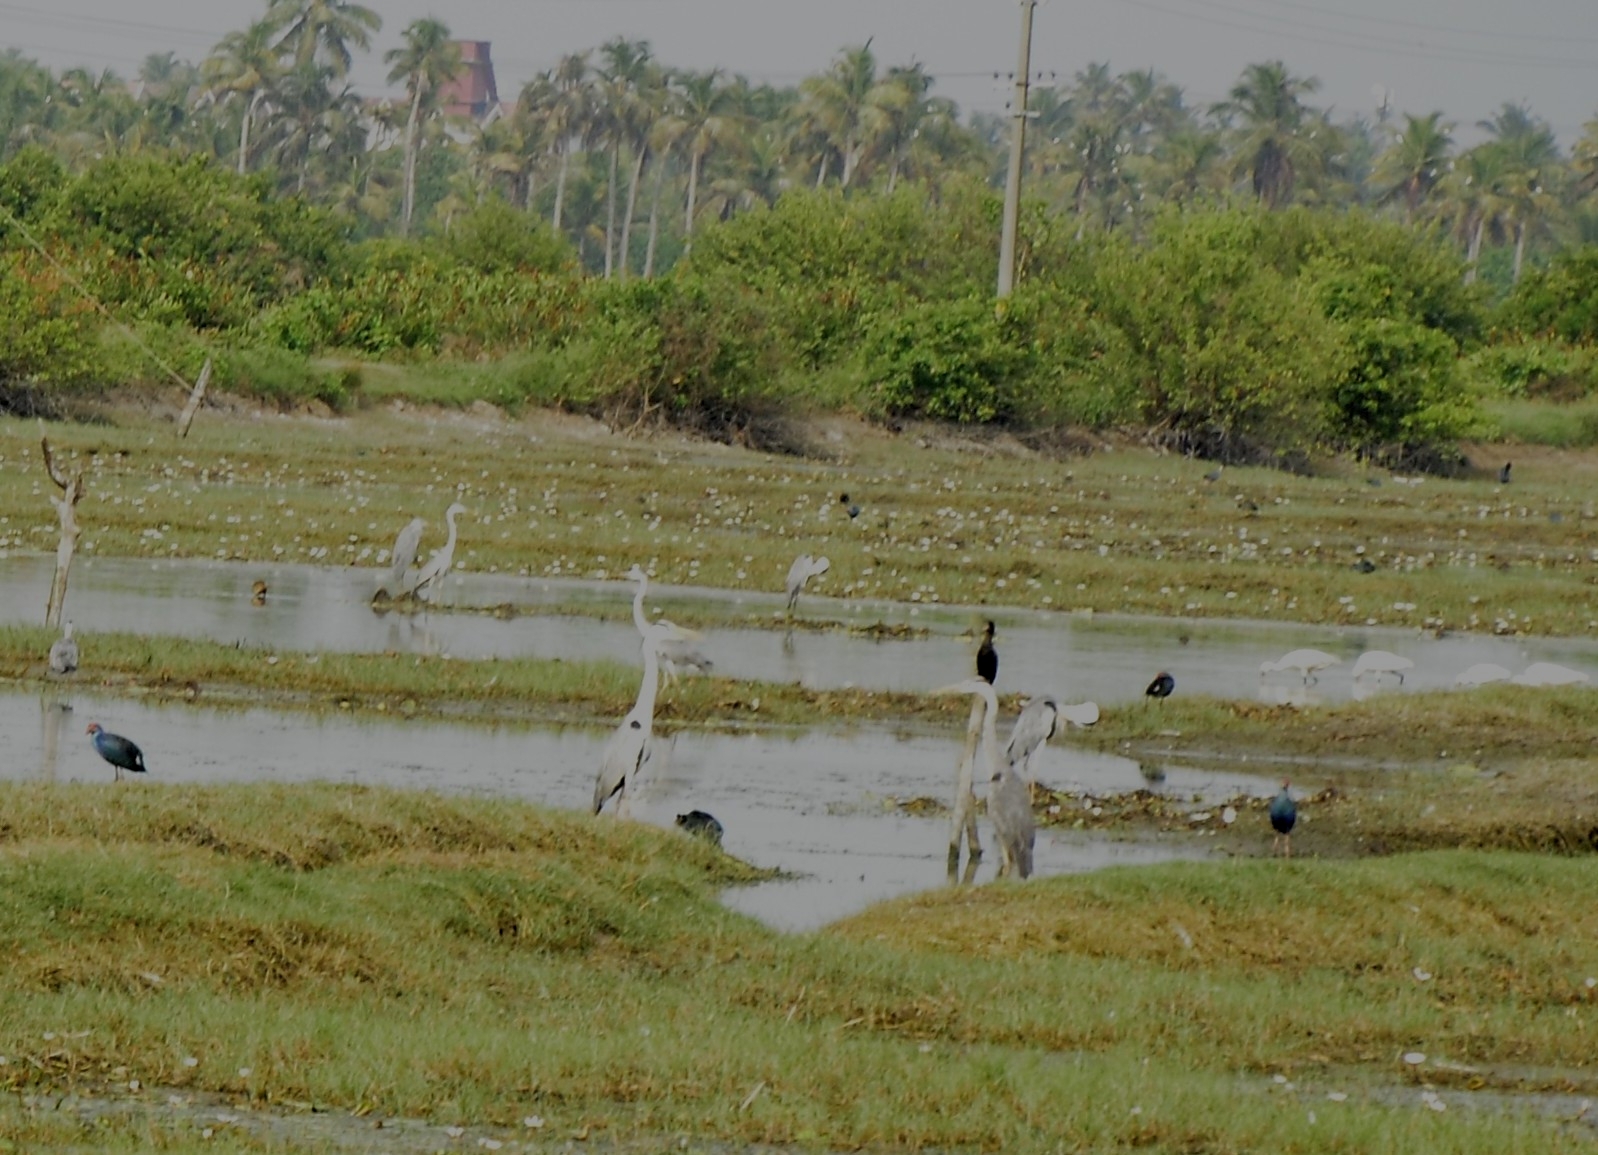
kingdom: Animalia
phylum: Chordata
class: Aves
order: Pelecaniformes
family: Ardeidae
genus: Ardea
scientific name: Ardea cinerea
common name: Grey heron
